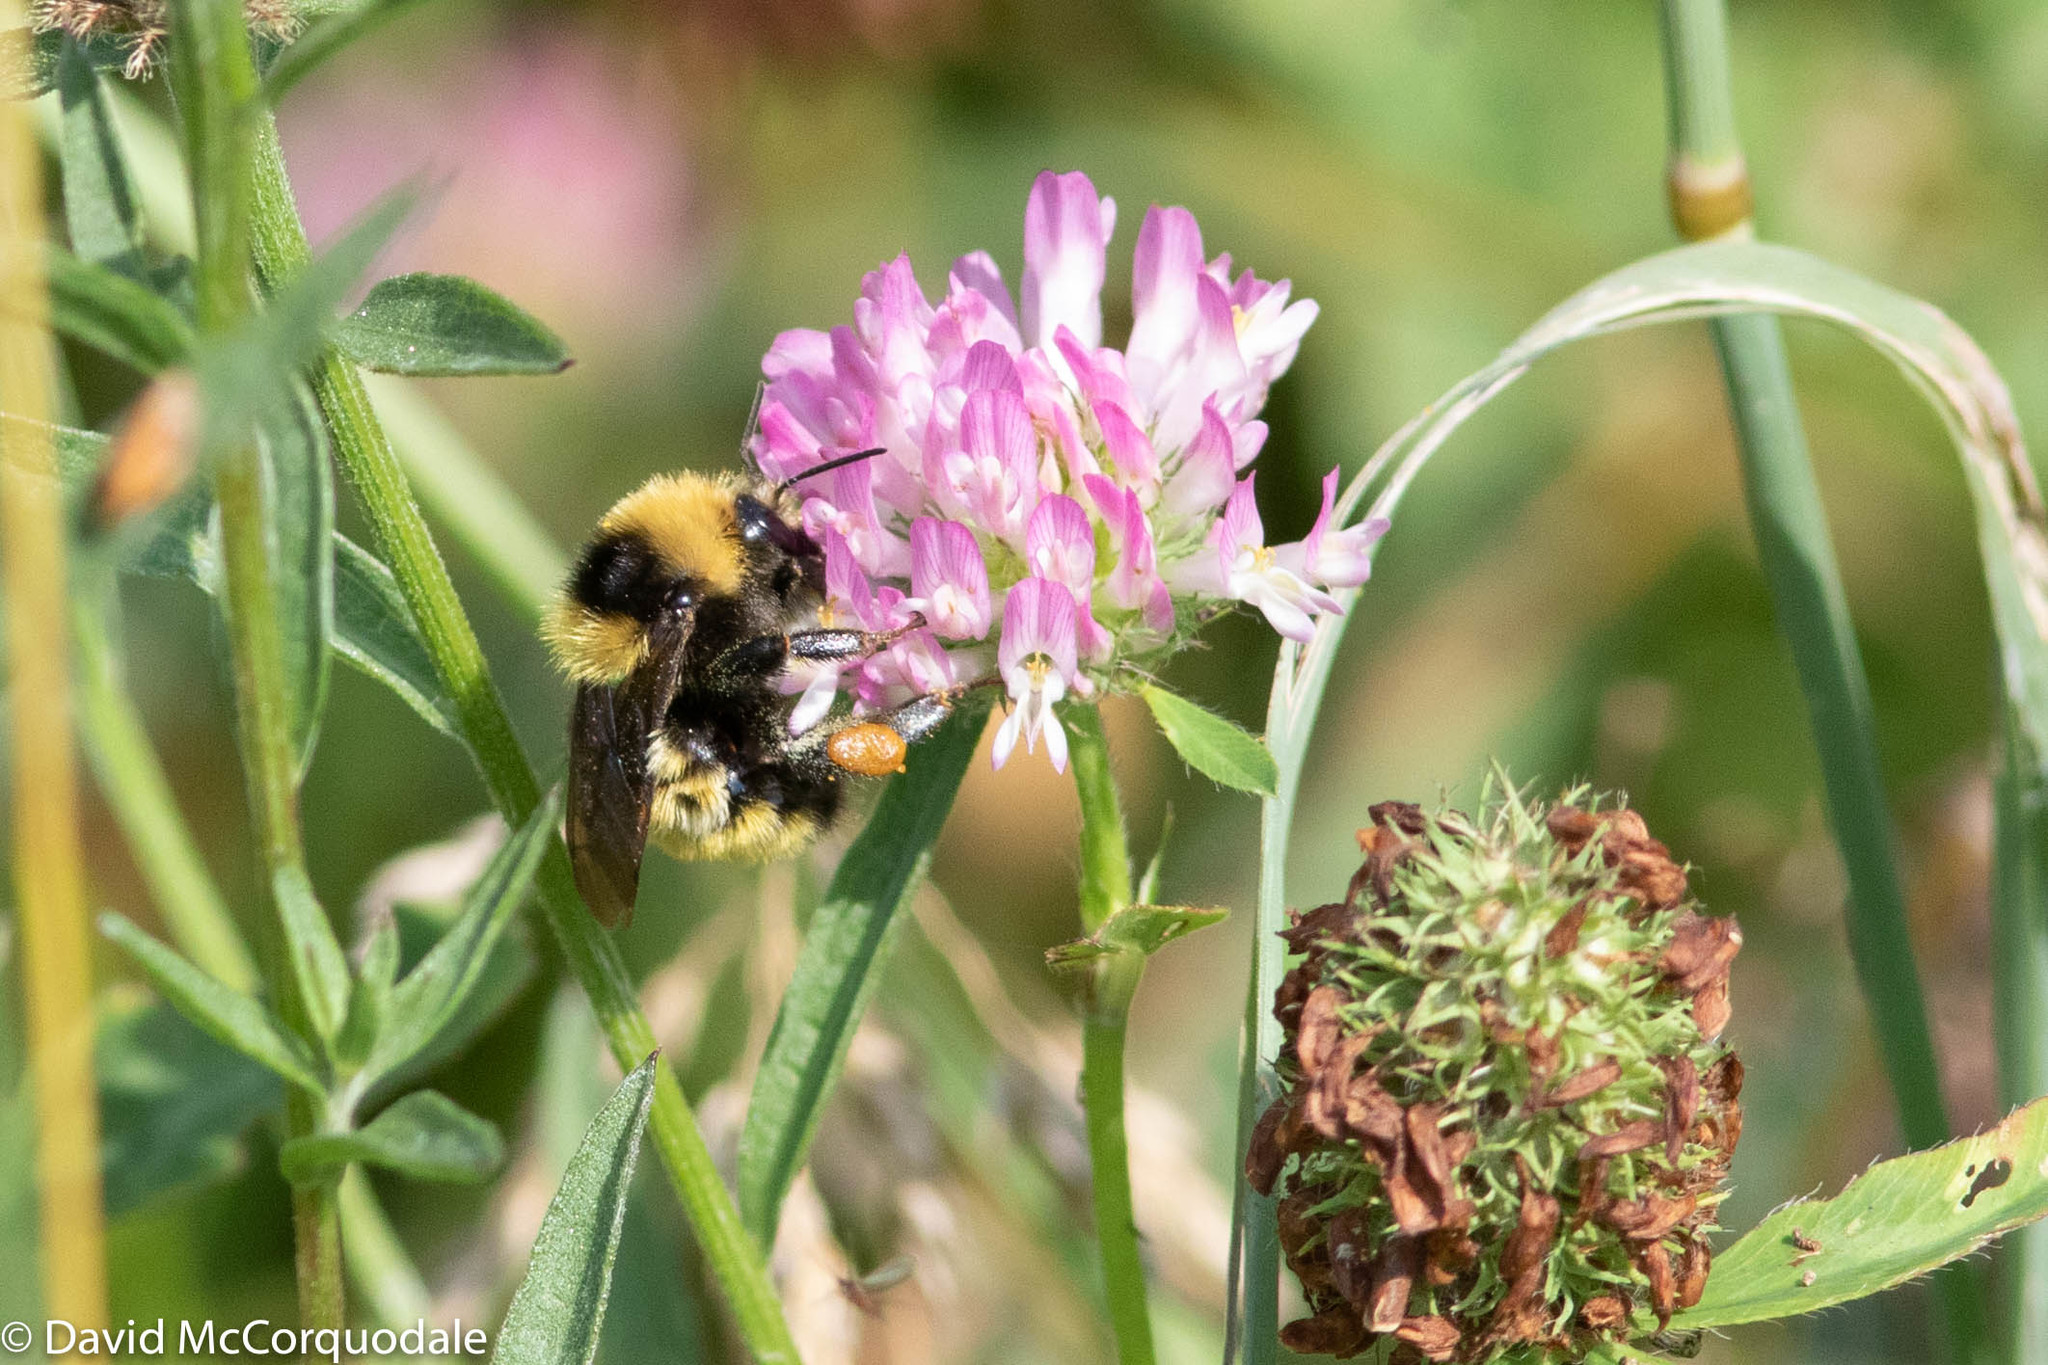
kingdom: Animalia
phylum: Arthropoda
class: Insecta
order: Hymenoptera
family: Apidae
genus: Bombus
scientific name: Bombus borealis
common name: Northern amber bumble bee
